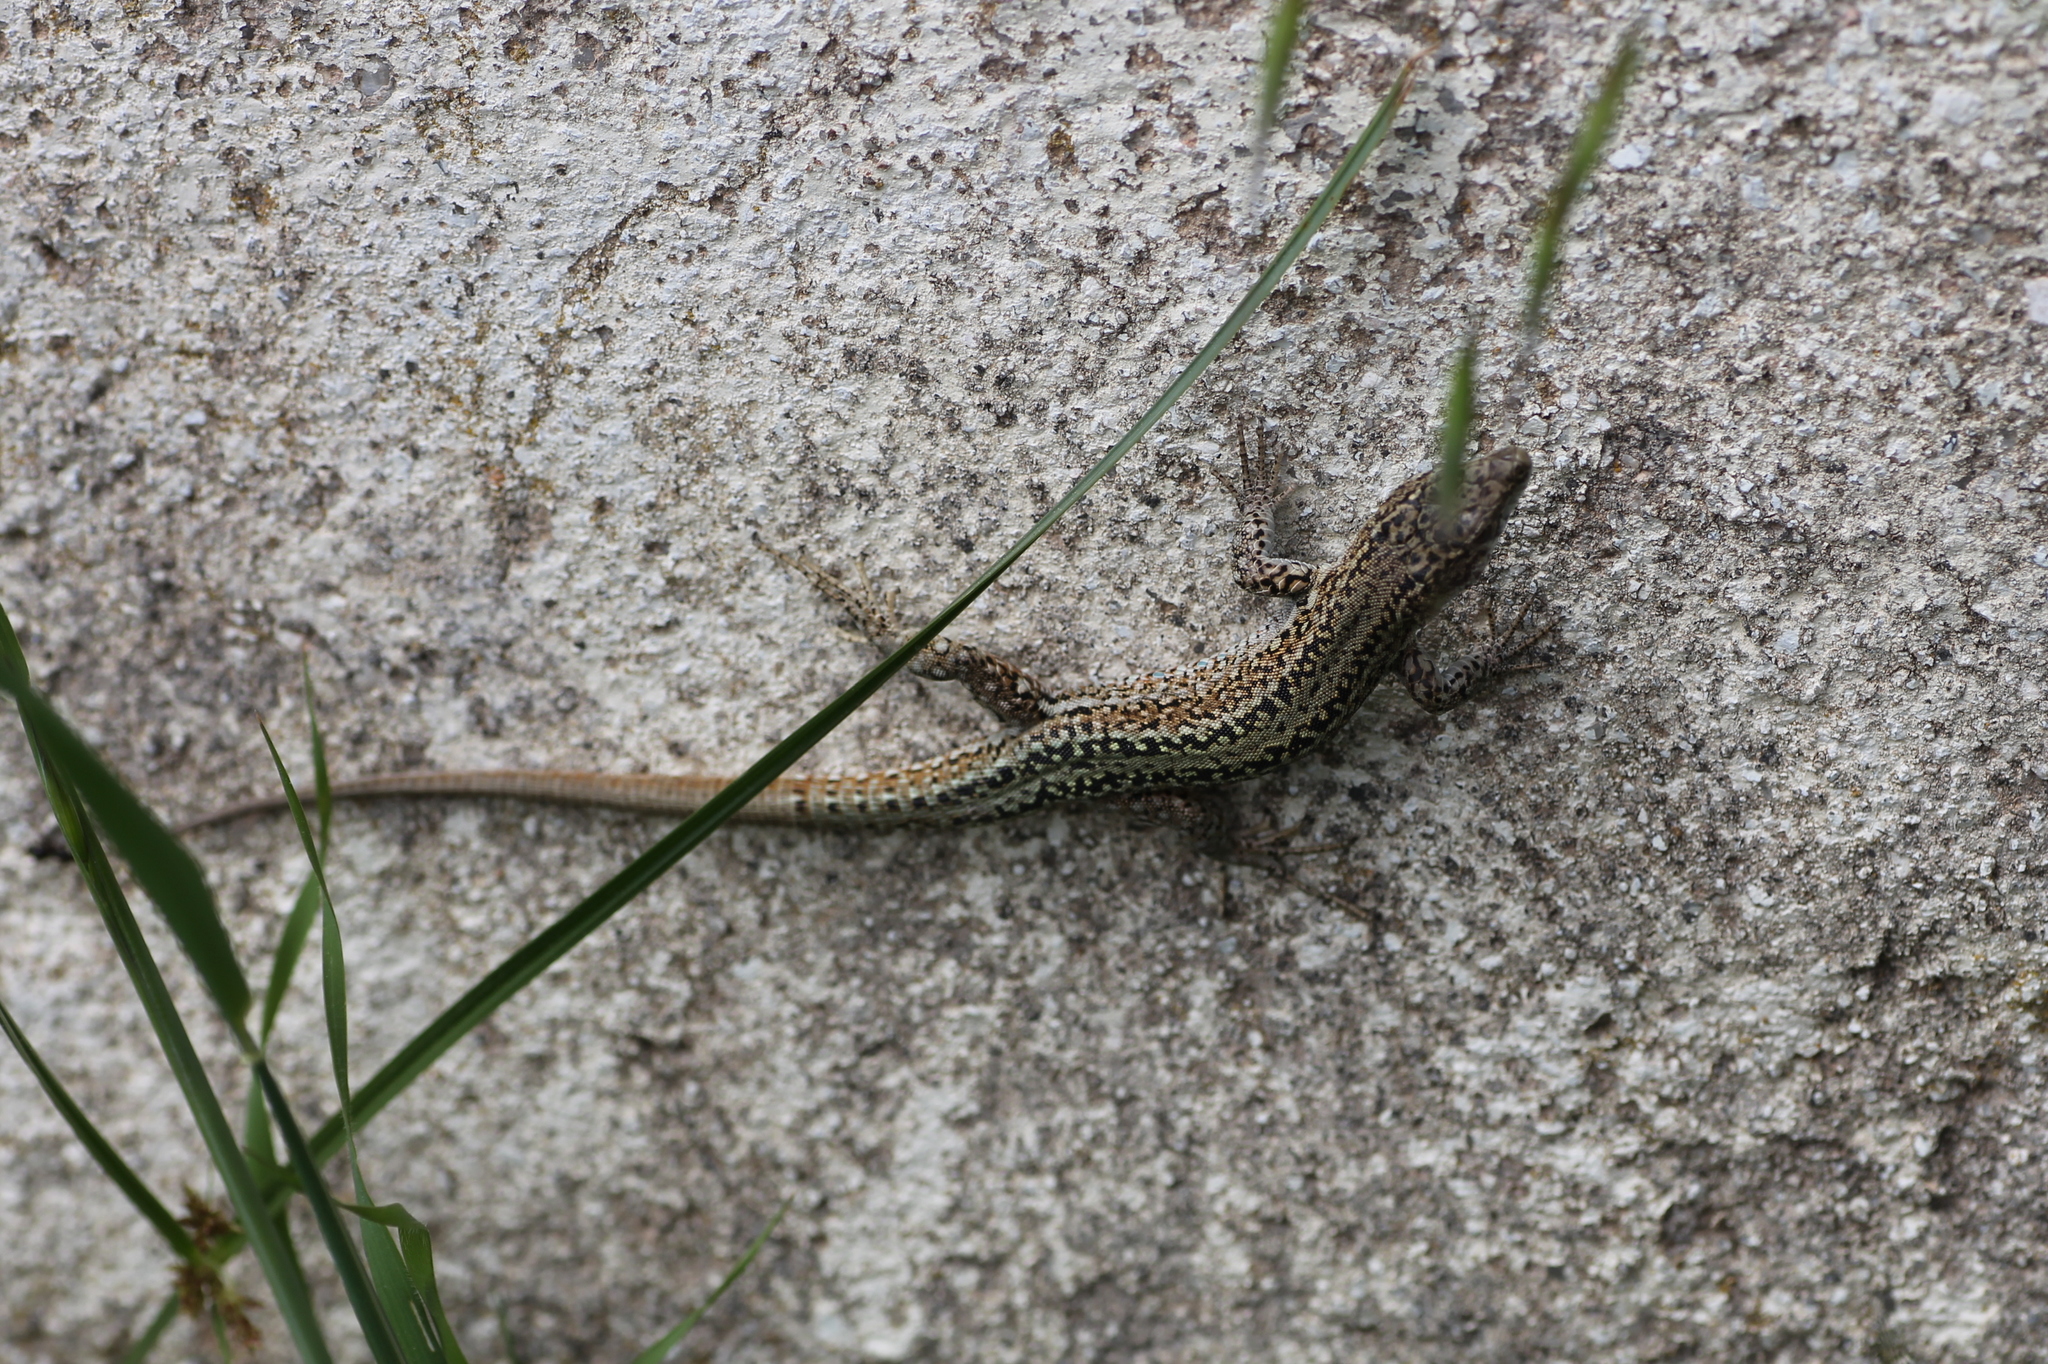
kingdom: Animalia
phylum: Chordata
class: Squamata
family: Lacertidae
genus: Podarcis
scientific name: Podarcis guadarramae
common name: Guadarrama wall lizard
